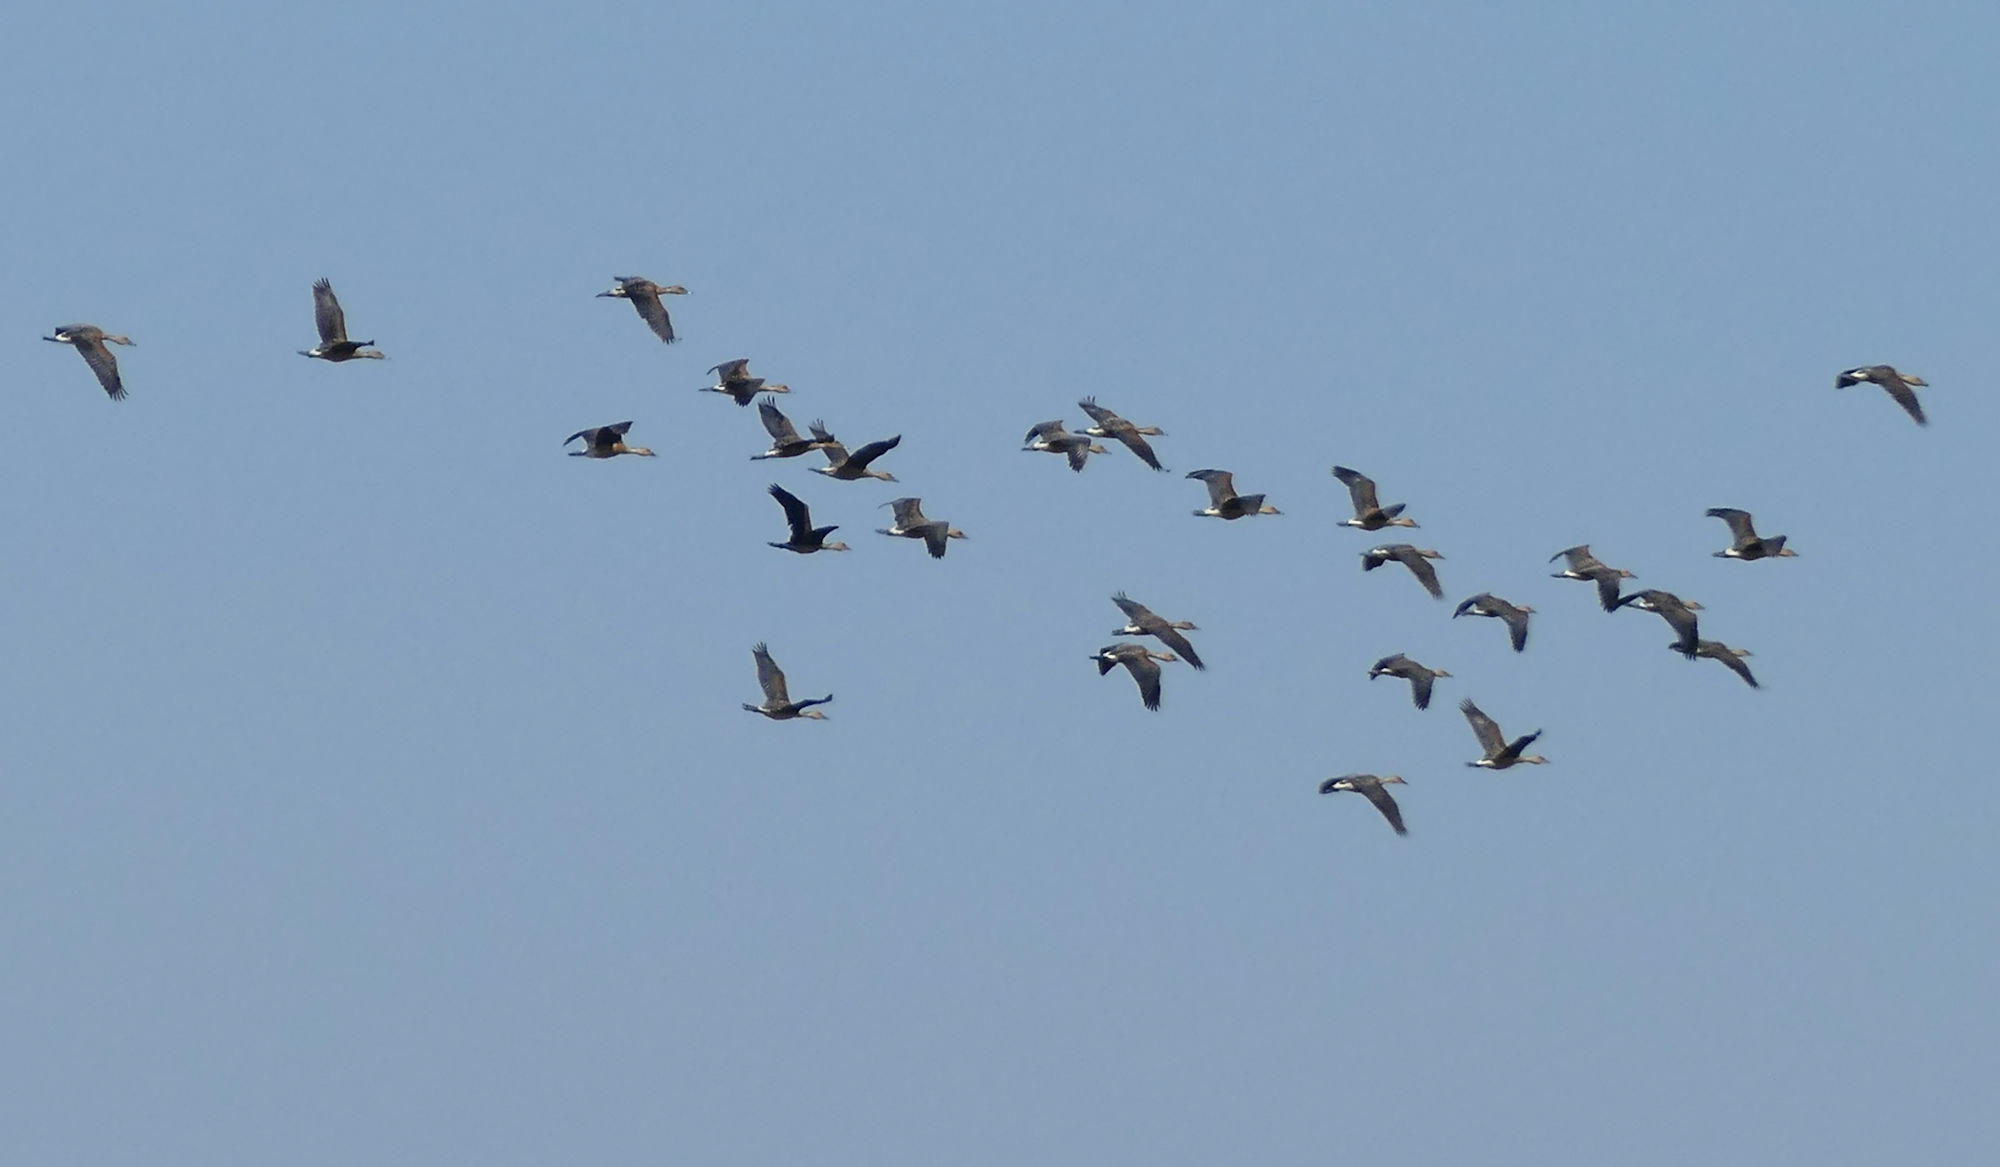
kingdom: Animalia
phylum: Chordata
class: Aves
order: Anseriformes
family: Anatidae
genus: Dendrocygna
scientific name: Dendrocygna bicolor
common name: Fulvous whistling duck
